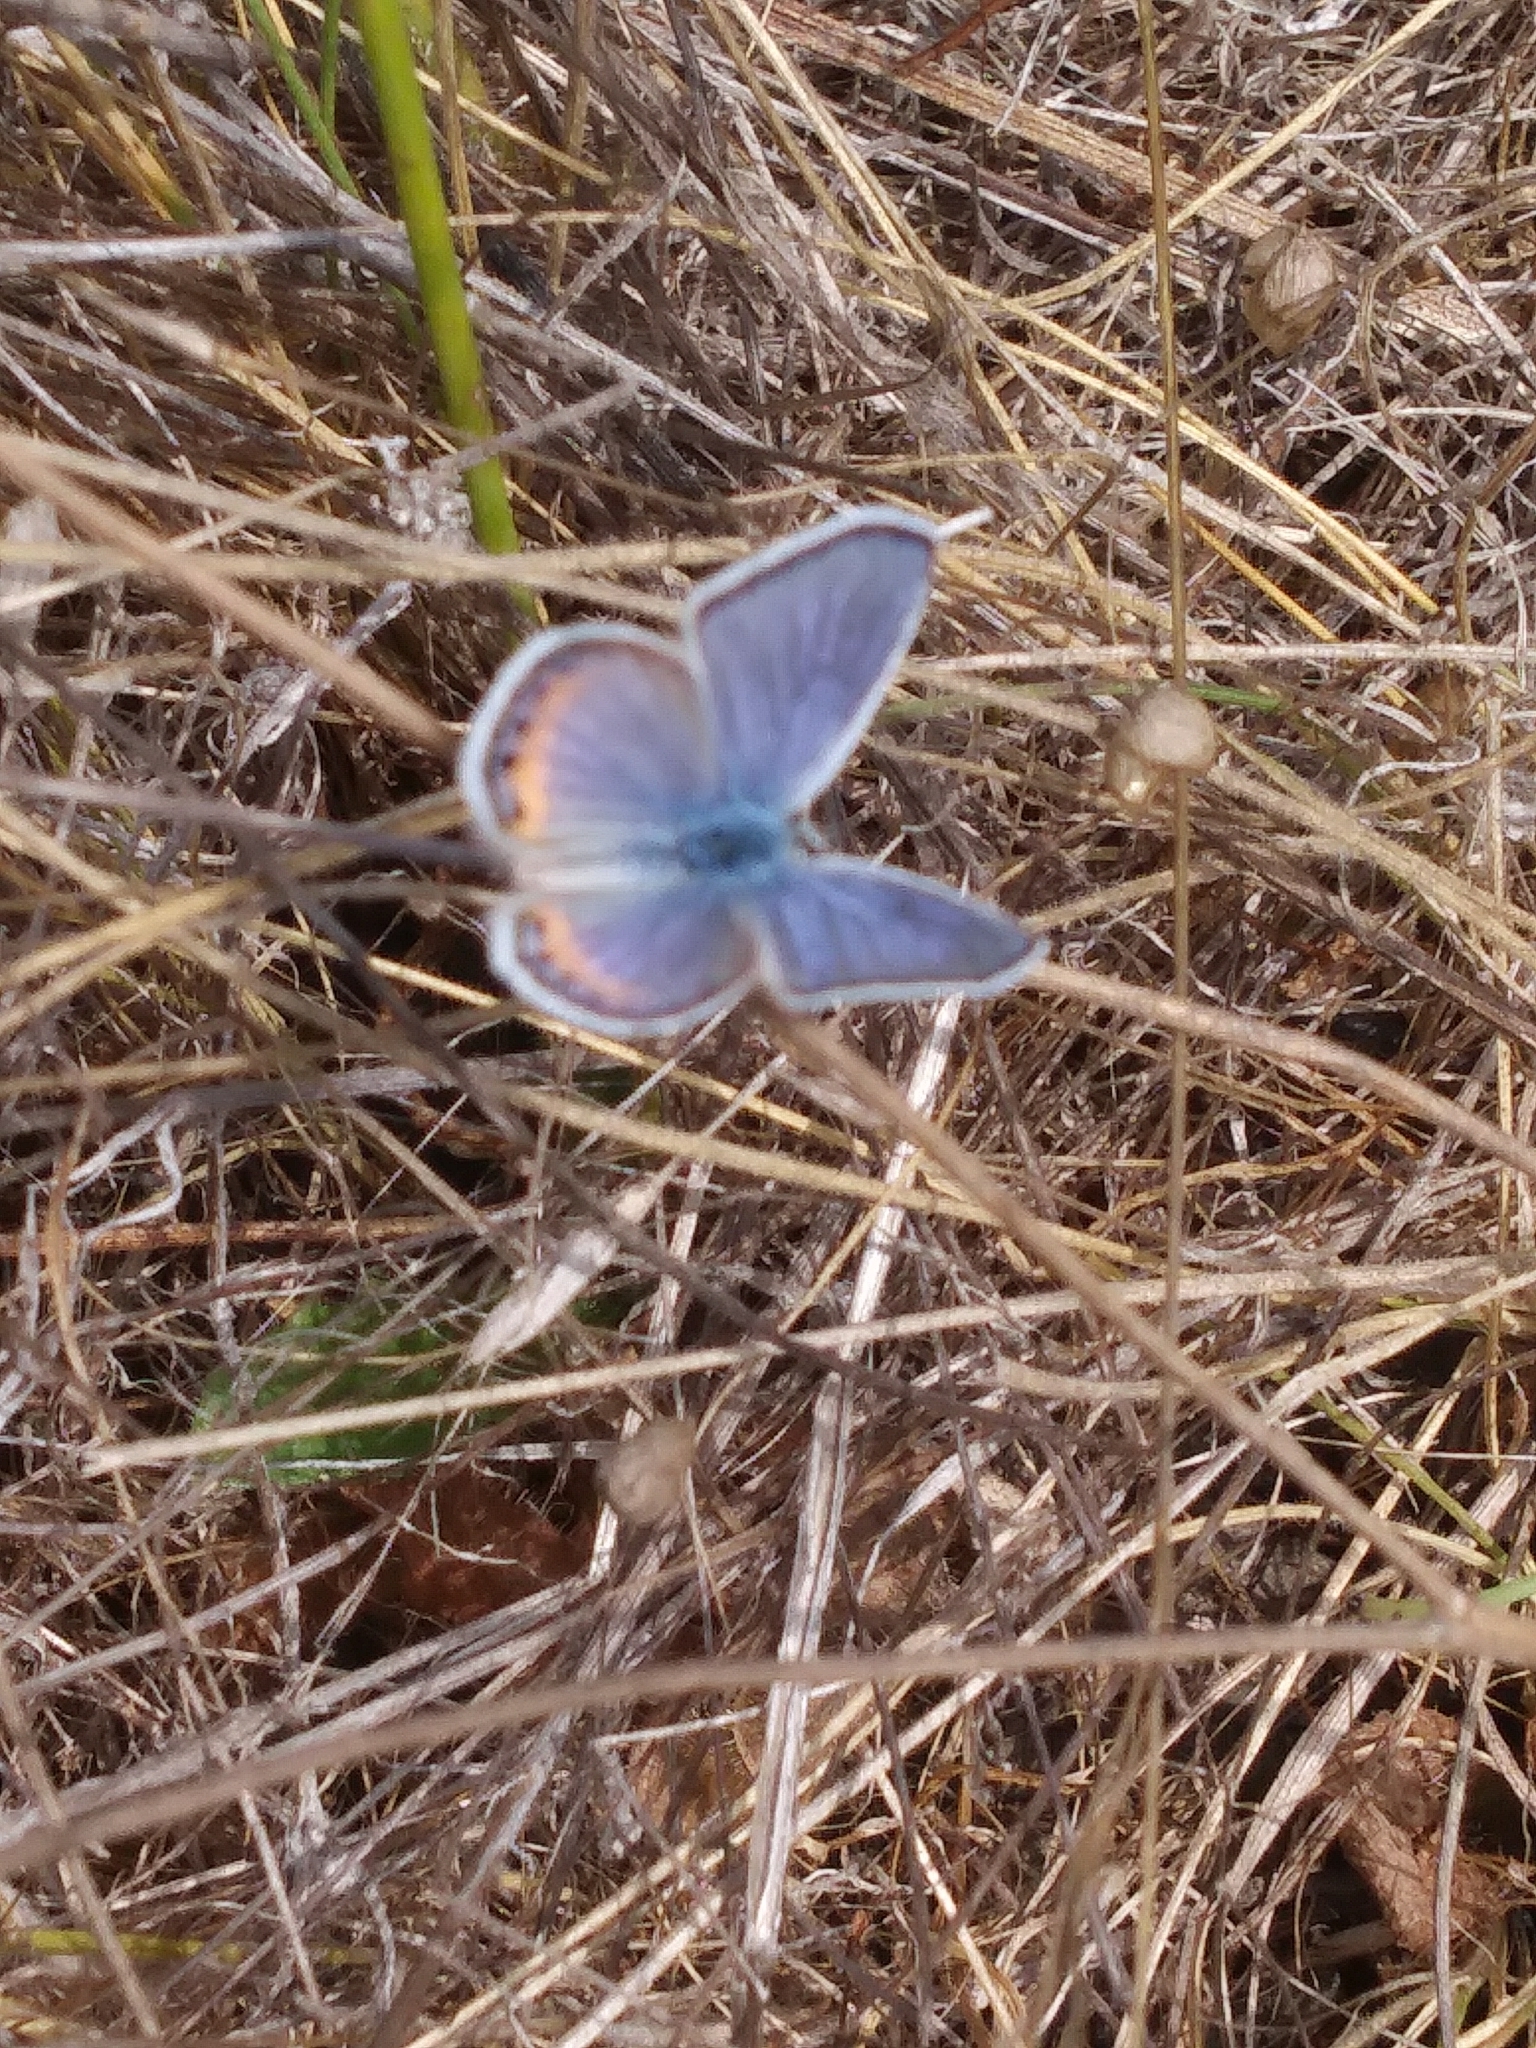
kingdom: Animalia
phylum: Arthropoda
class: Insecta
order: Lepidoptera
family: Lycaenidae
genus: Icaricia
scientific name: Icaricia acmon
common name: Acmon blue
